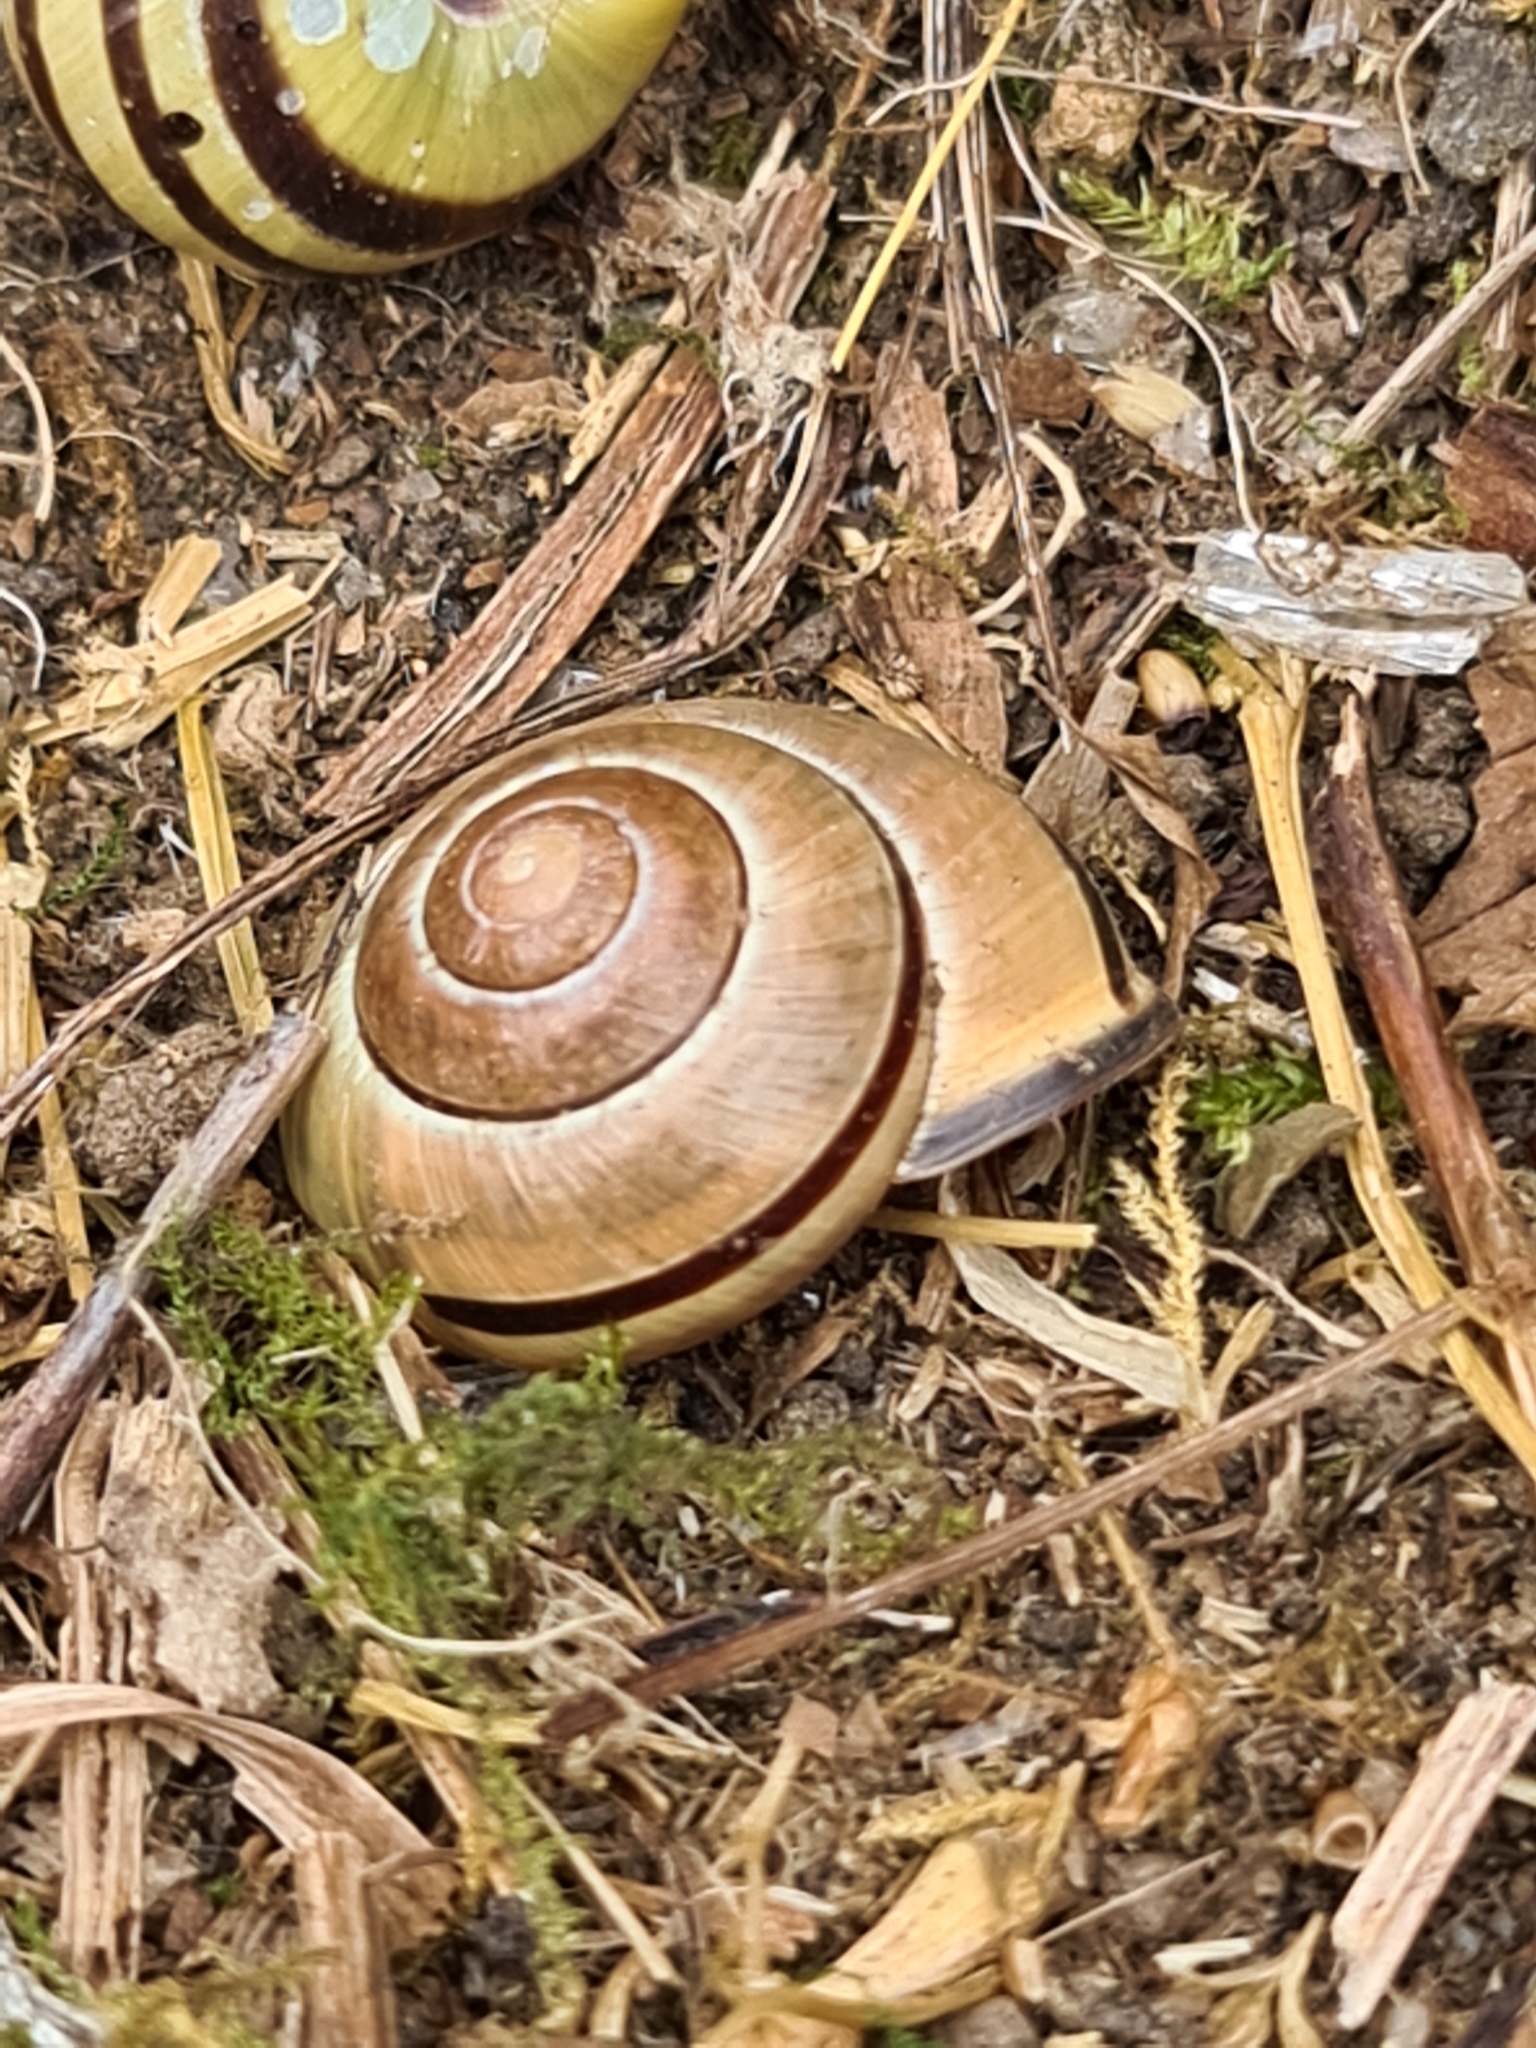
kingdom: Animalia
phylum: Mollusca
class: Gastropoda
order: Stylommatophora
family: Helicidae
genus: Cepaea
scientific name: Cepaea nemoralis
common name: Grovesnail
